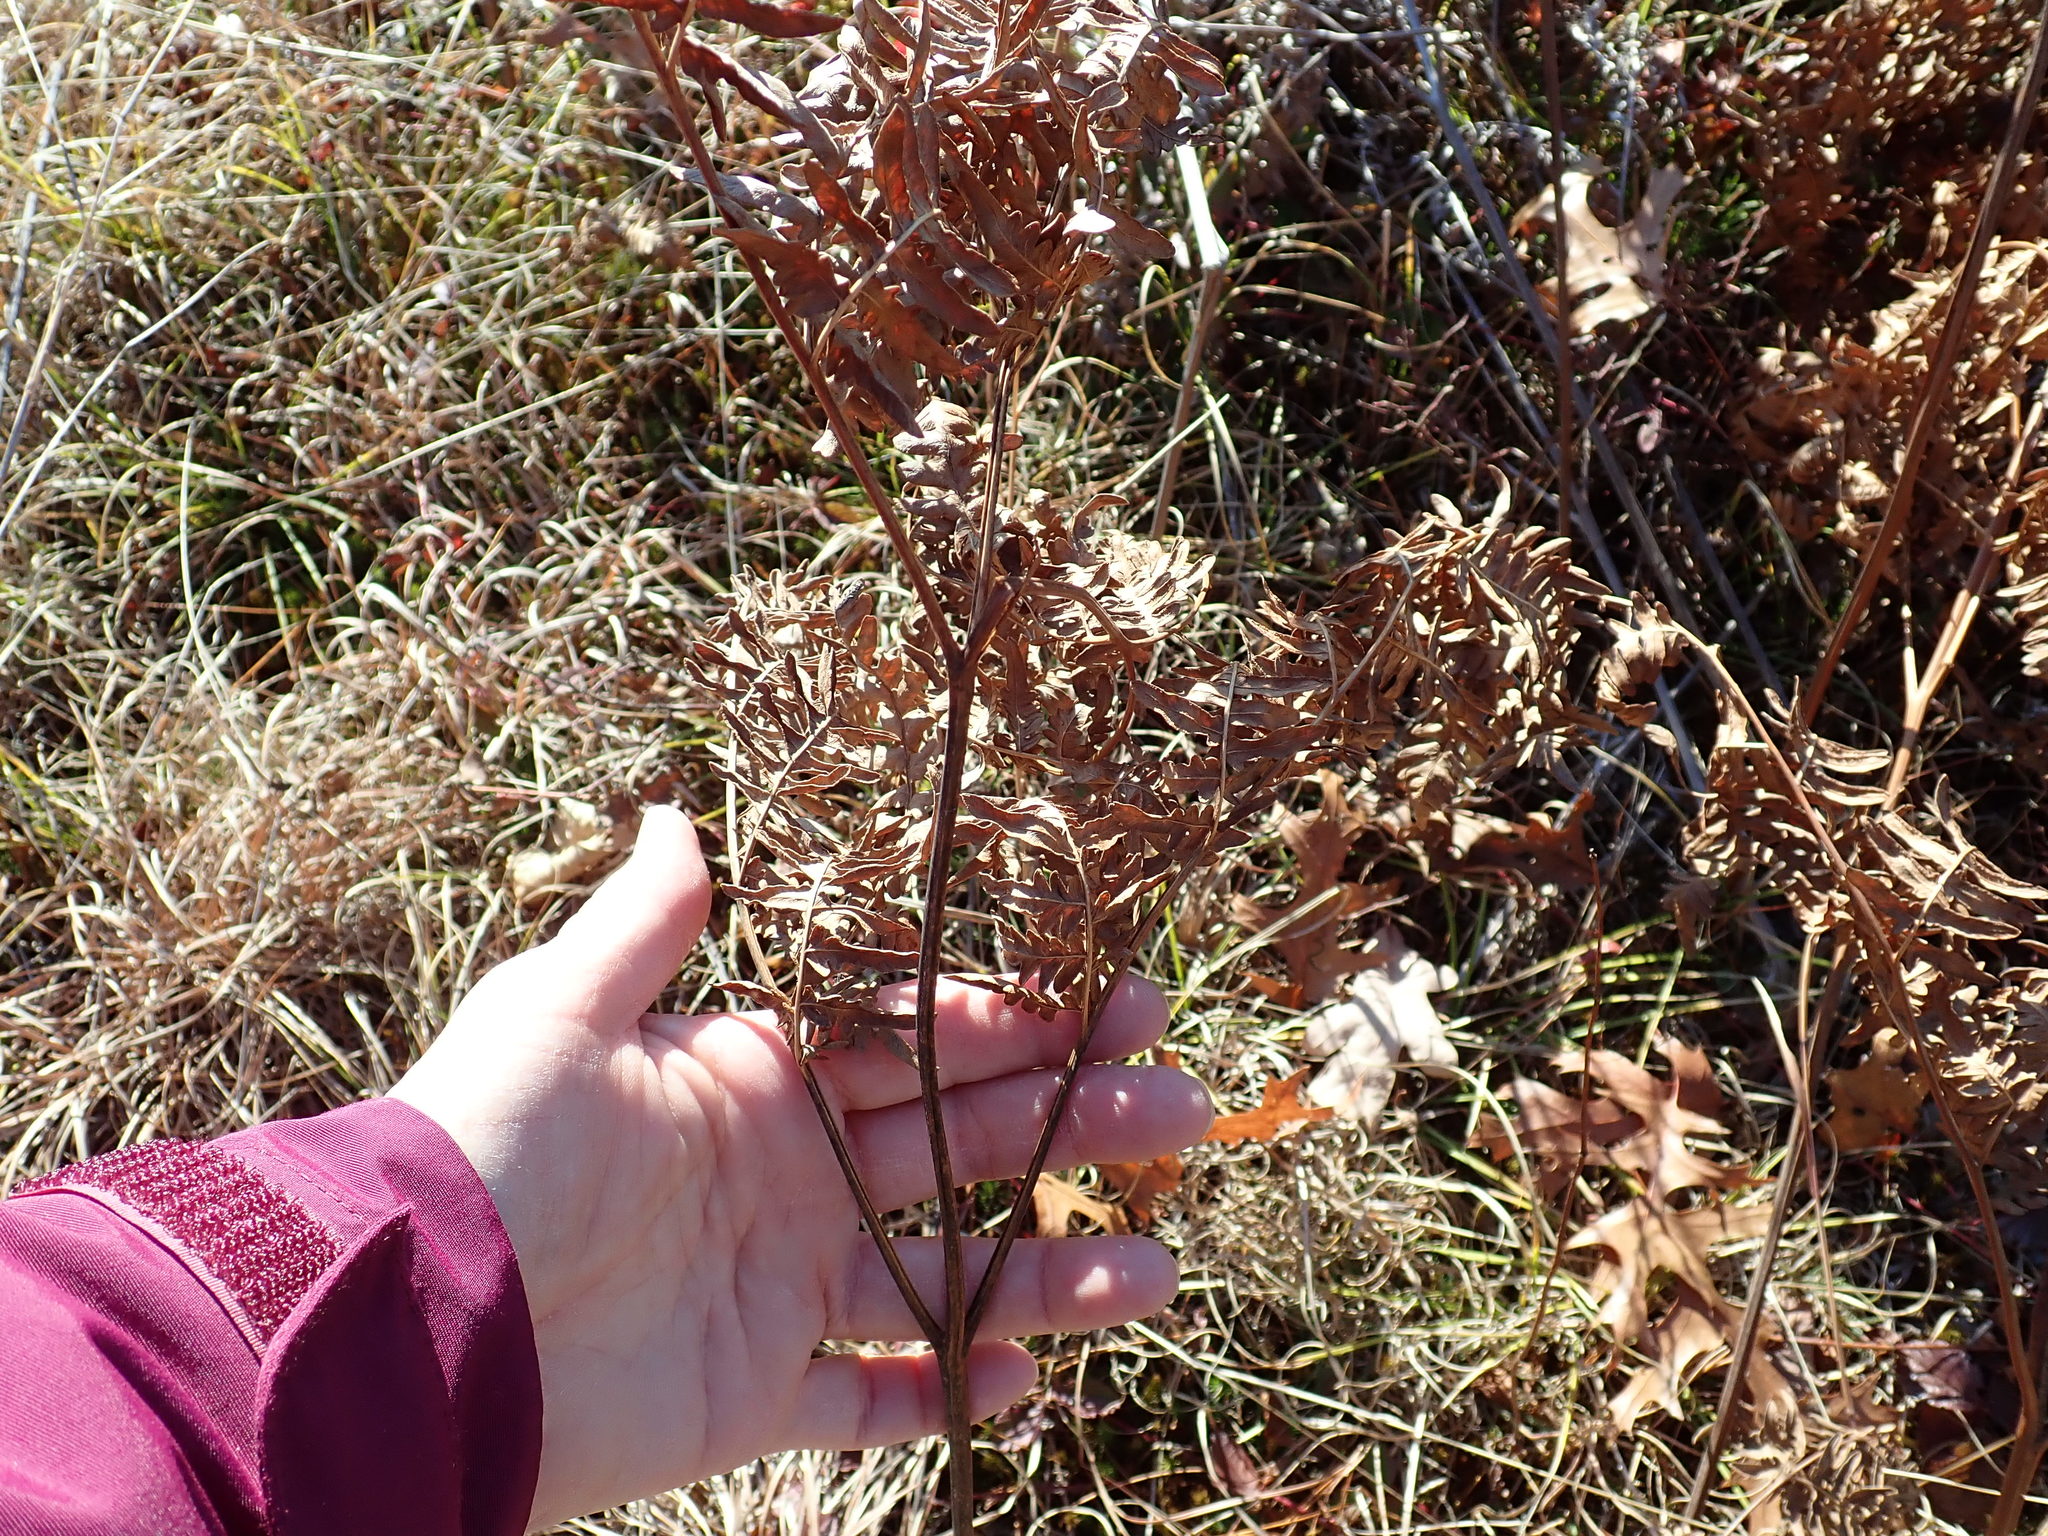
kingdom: Plantae
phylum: Tracheophyta
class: Polypodiopsida
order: Polypodiales
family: Dennstaedtiaceae
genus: Pteridium
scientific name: Pteridium aquilinum
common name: Bracken
